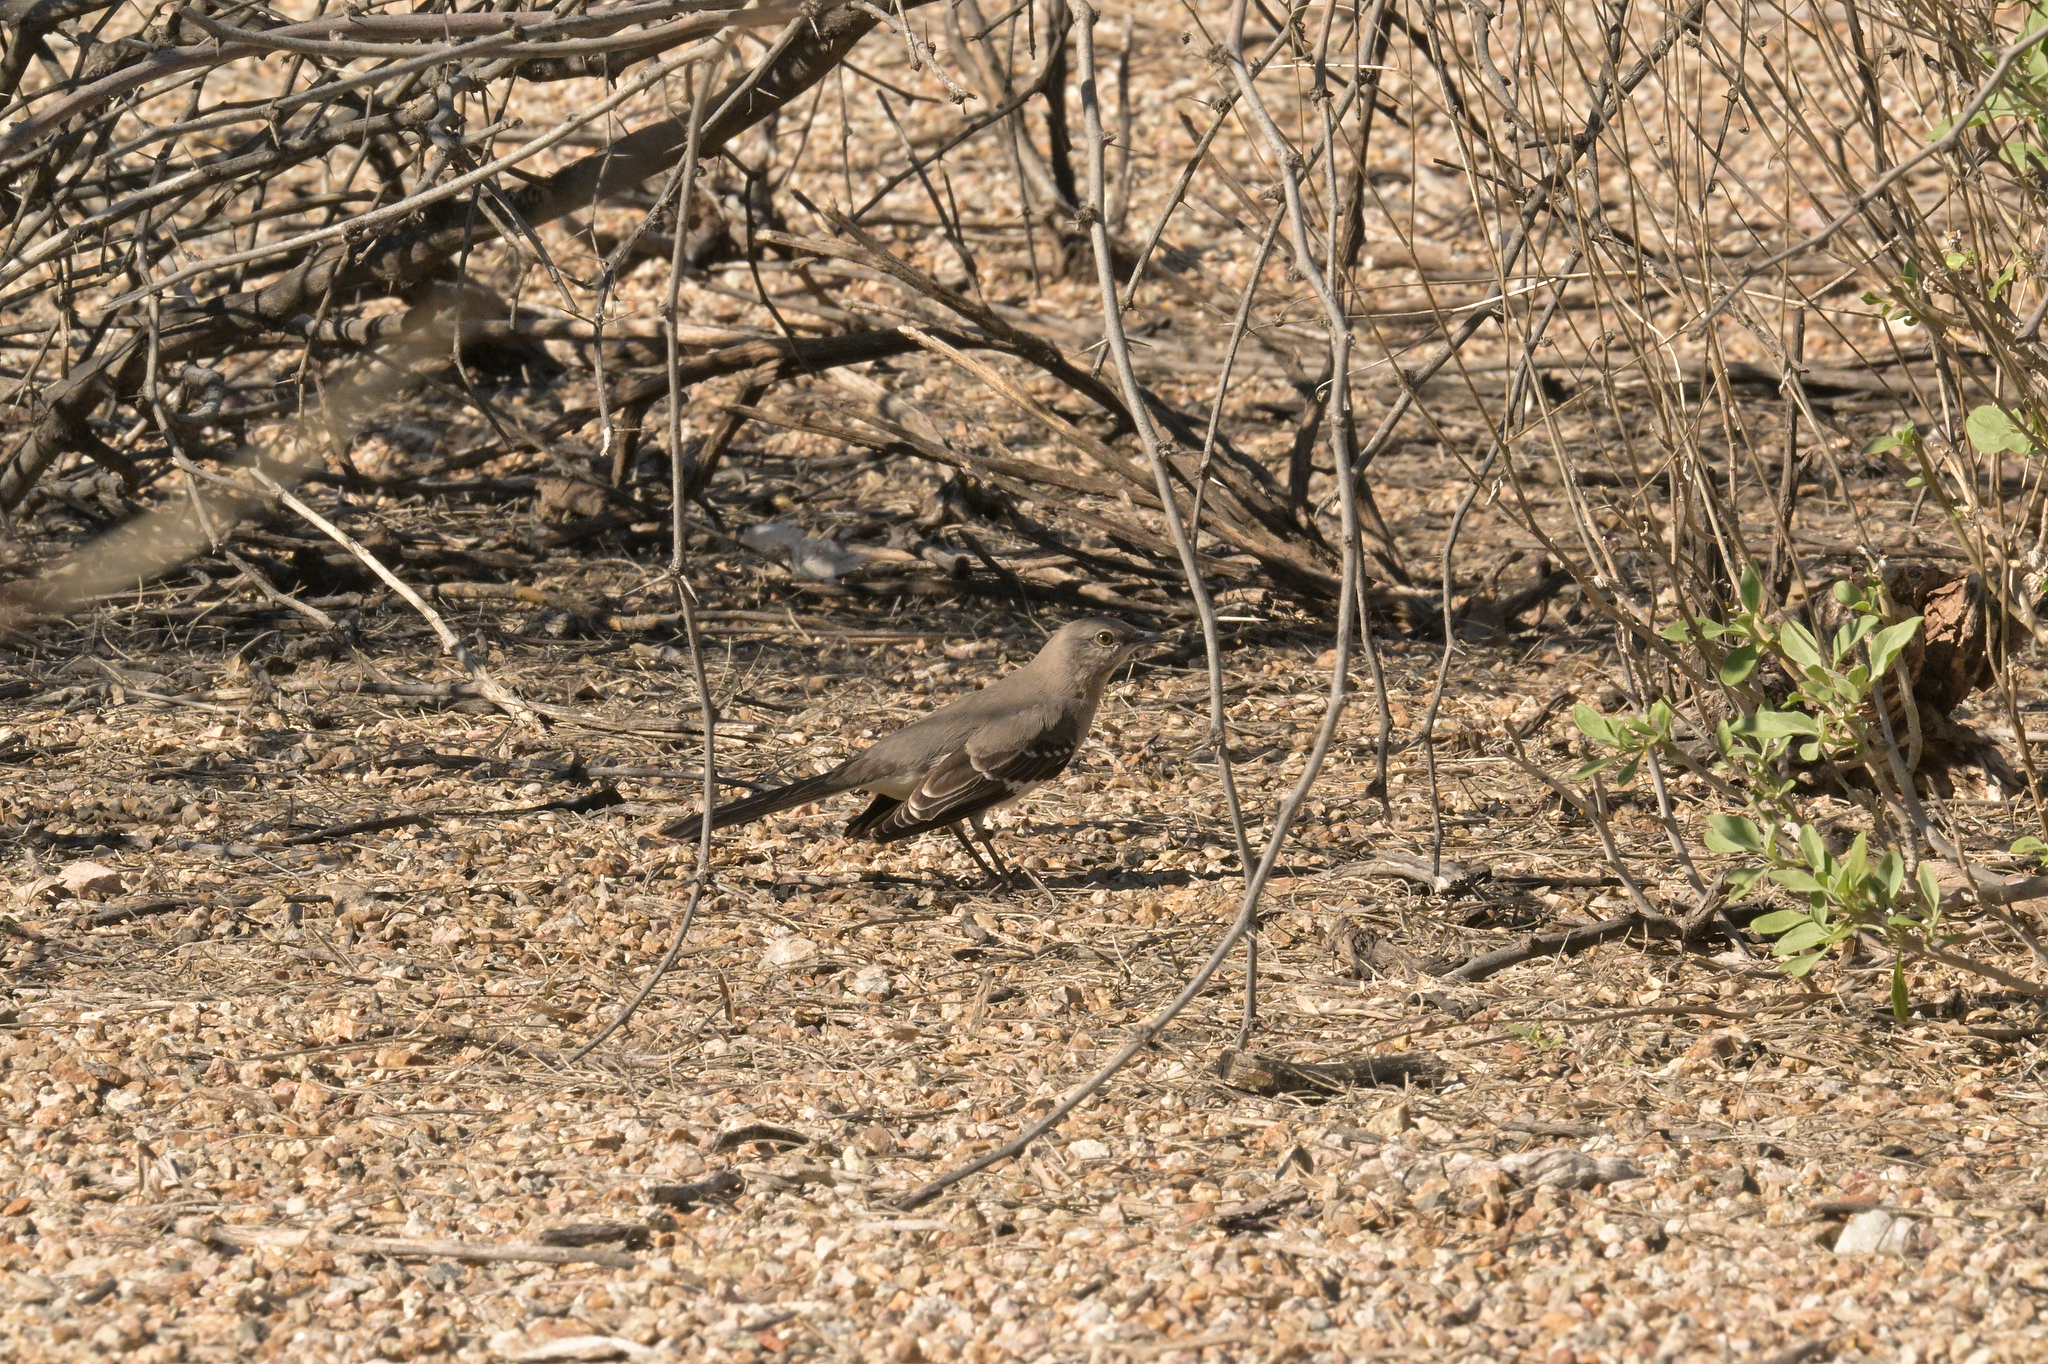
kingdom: Animalia
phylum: Chordata
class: Aves
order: Passeriformes
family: Mimidae
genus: Mimus
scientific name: Mimus polyglottos
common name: Northern mockingbird
